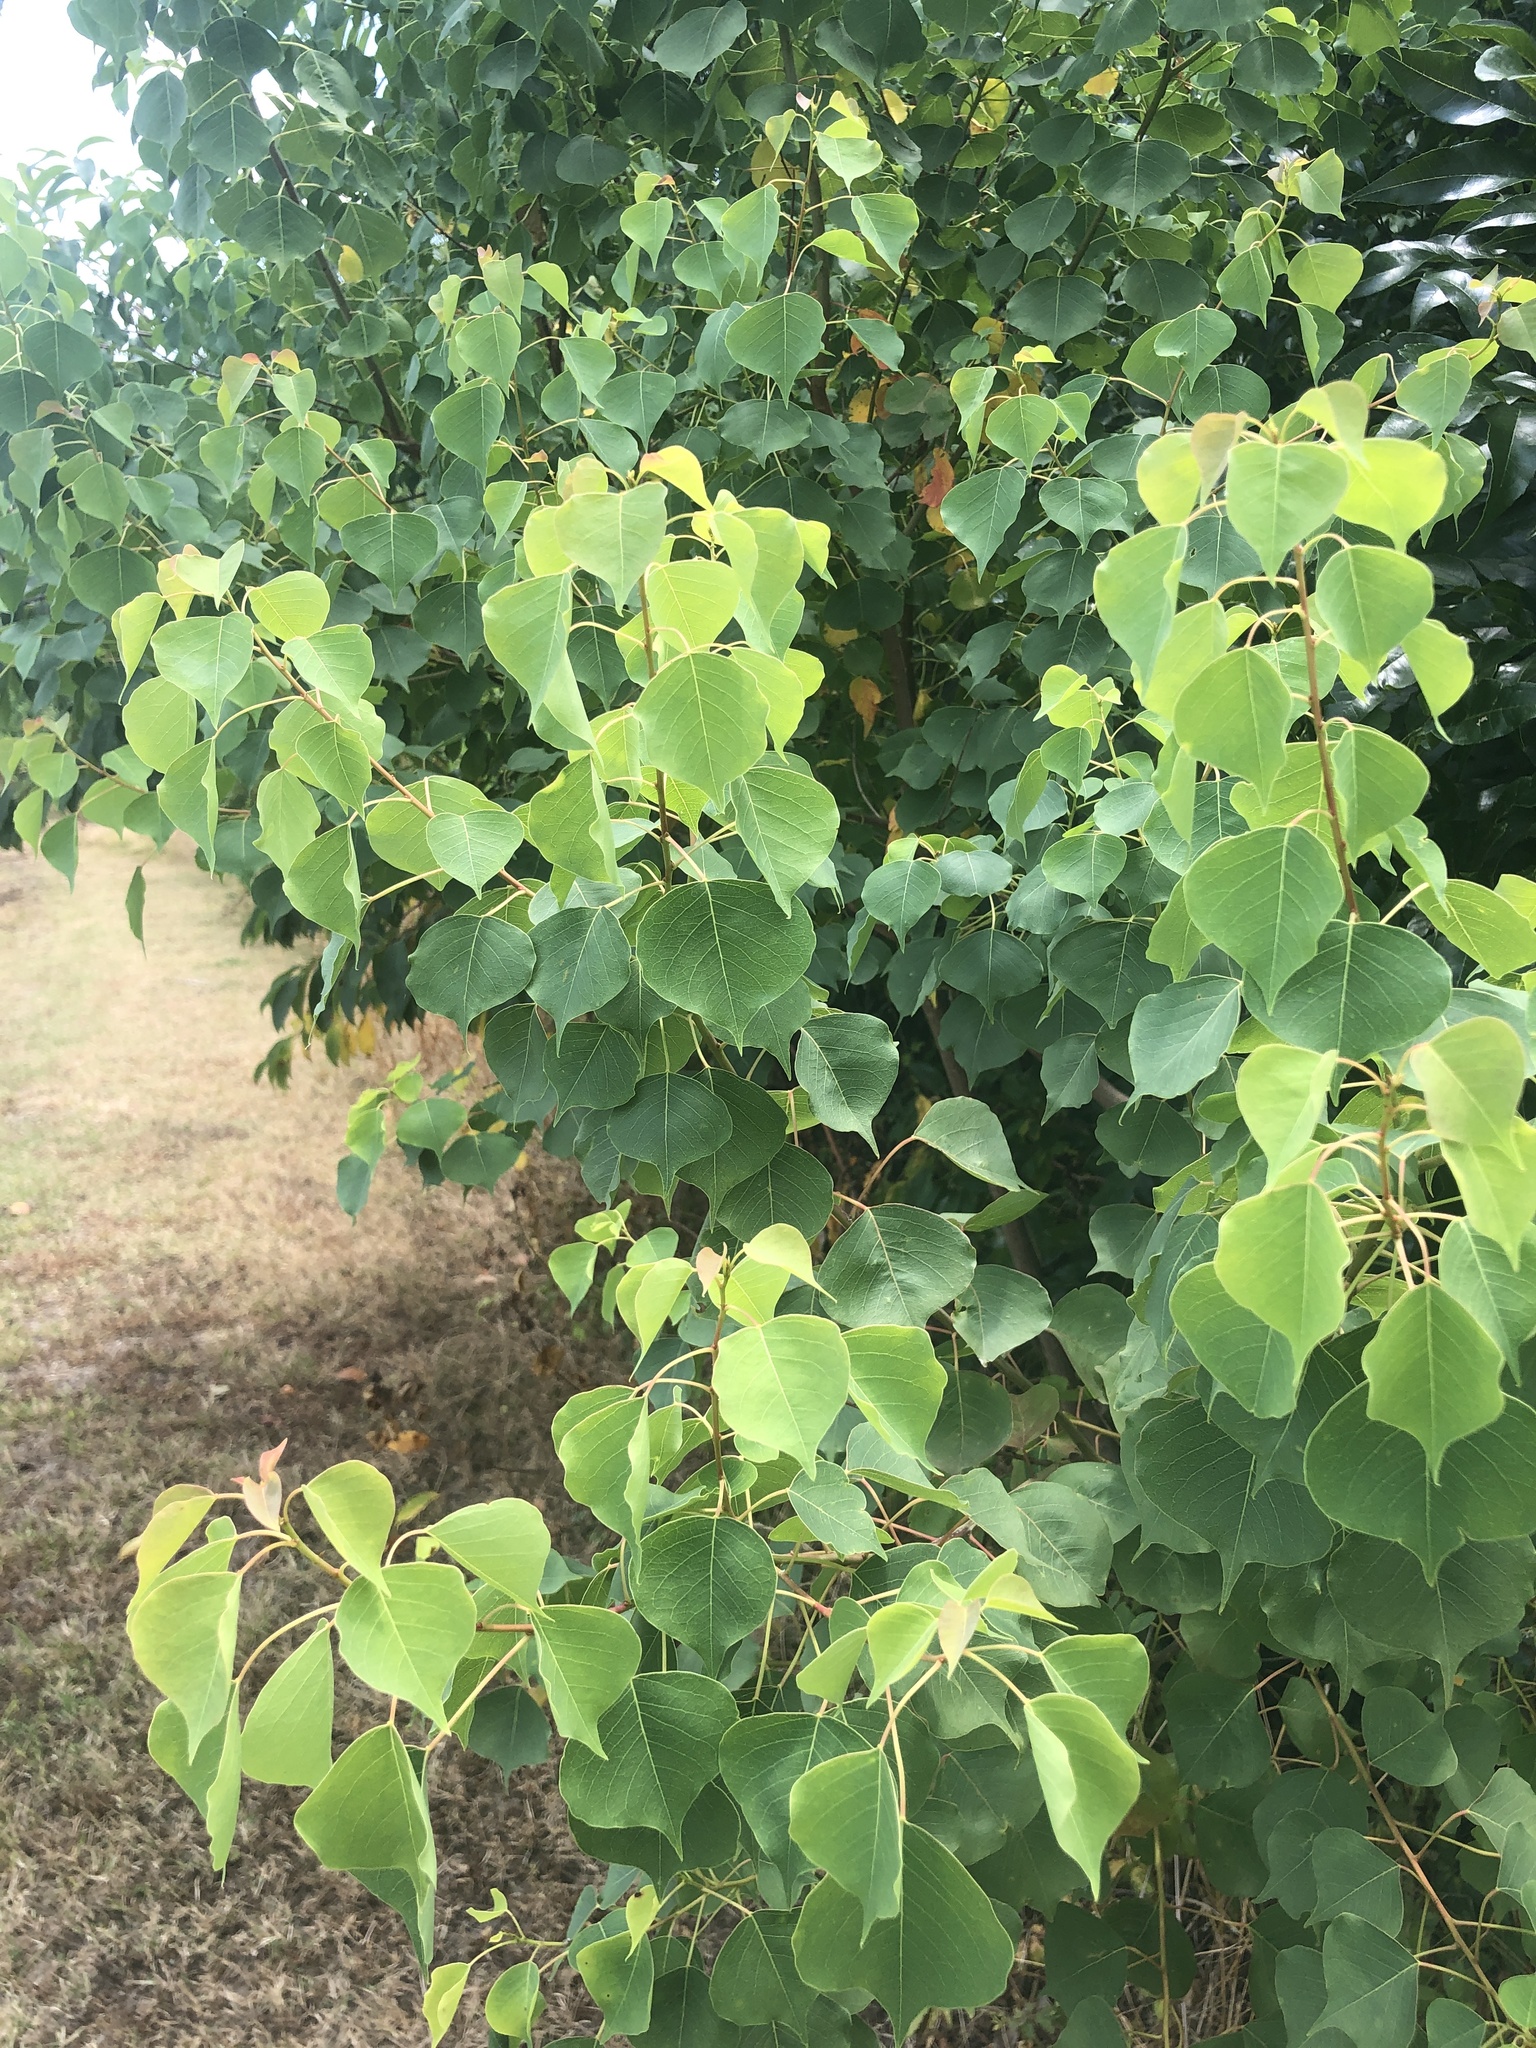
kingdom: Plantae
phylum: Tracheophyta
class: Magnoliopsida
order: Malpighiales
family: Euphorbiaceae
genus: Triadica
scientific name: Triadica sebifera
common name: Chinese tallow
